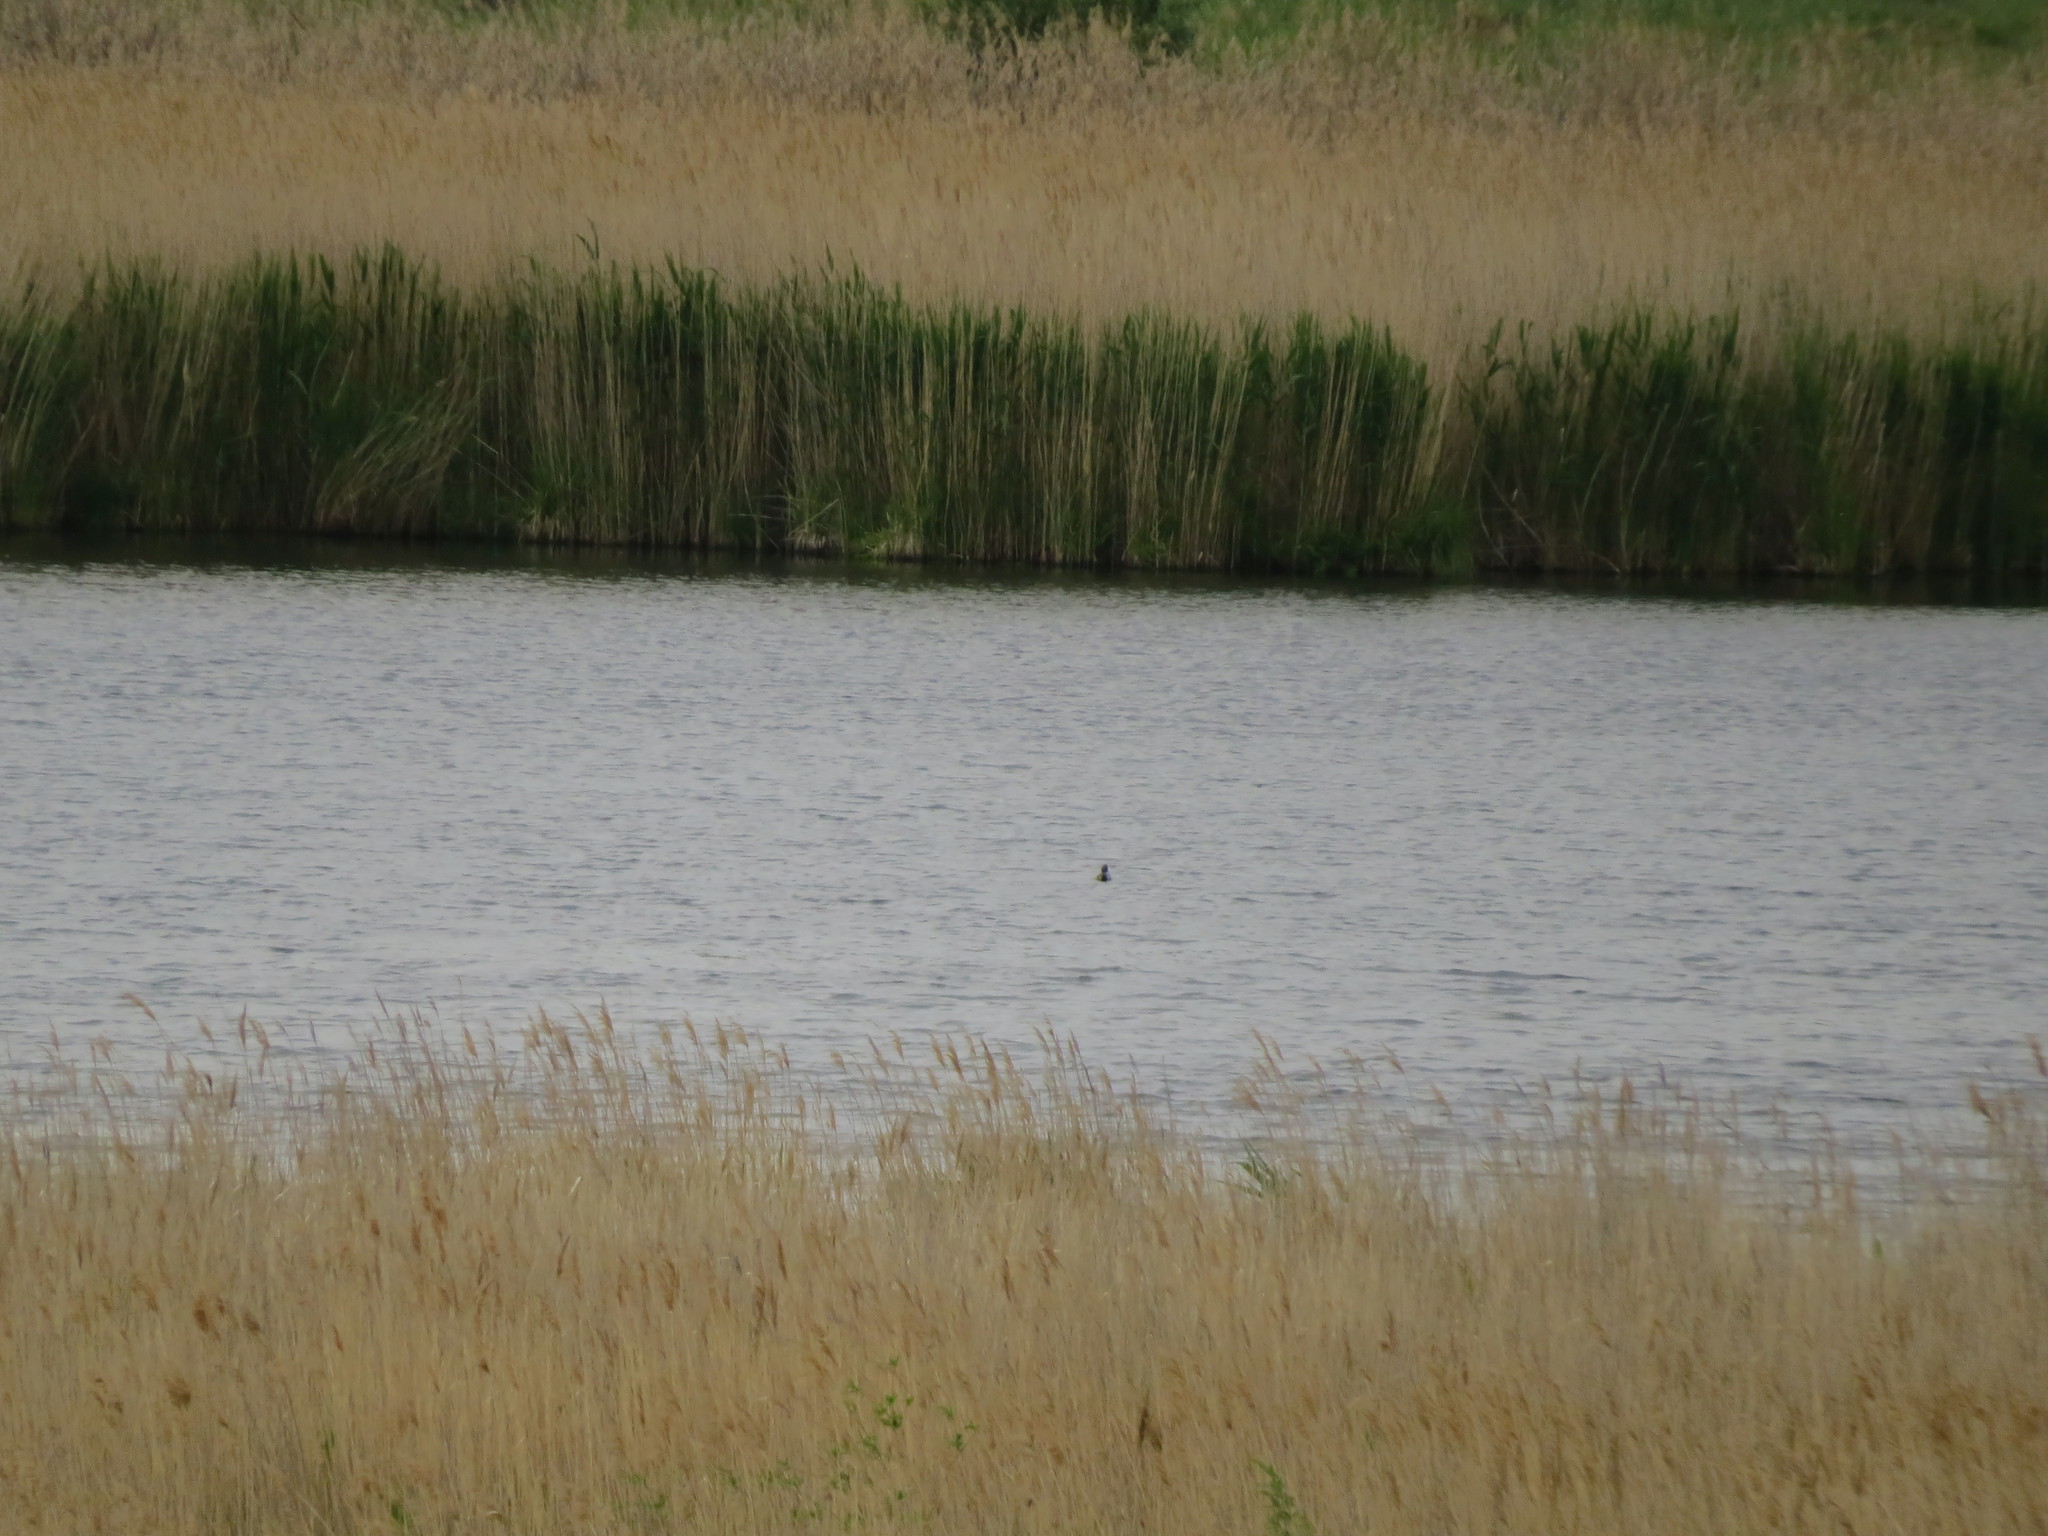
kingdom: Animalia
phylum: Chordata
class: Aves
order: Anseriformes
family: Anatidae
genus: Anas
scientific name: Anas crecca
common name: Eurasian teal
